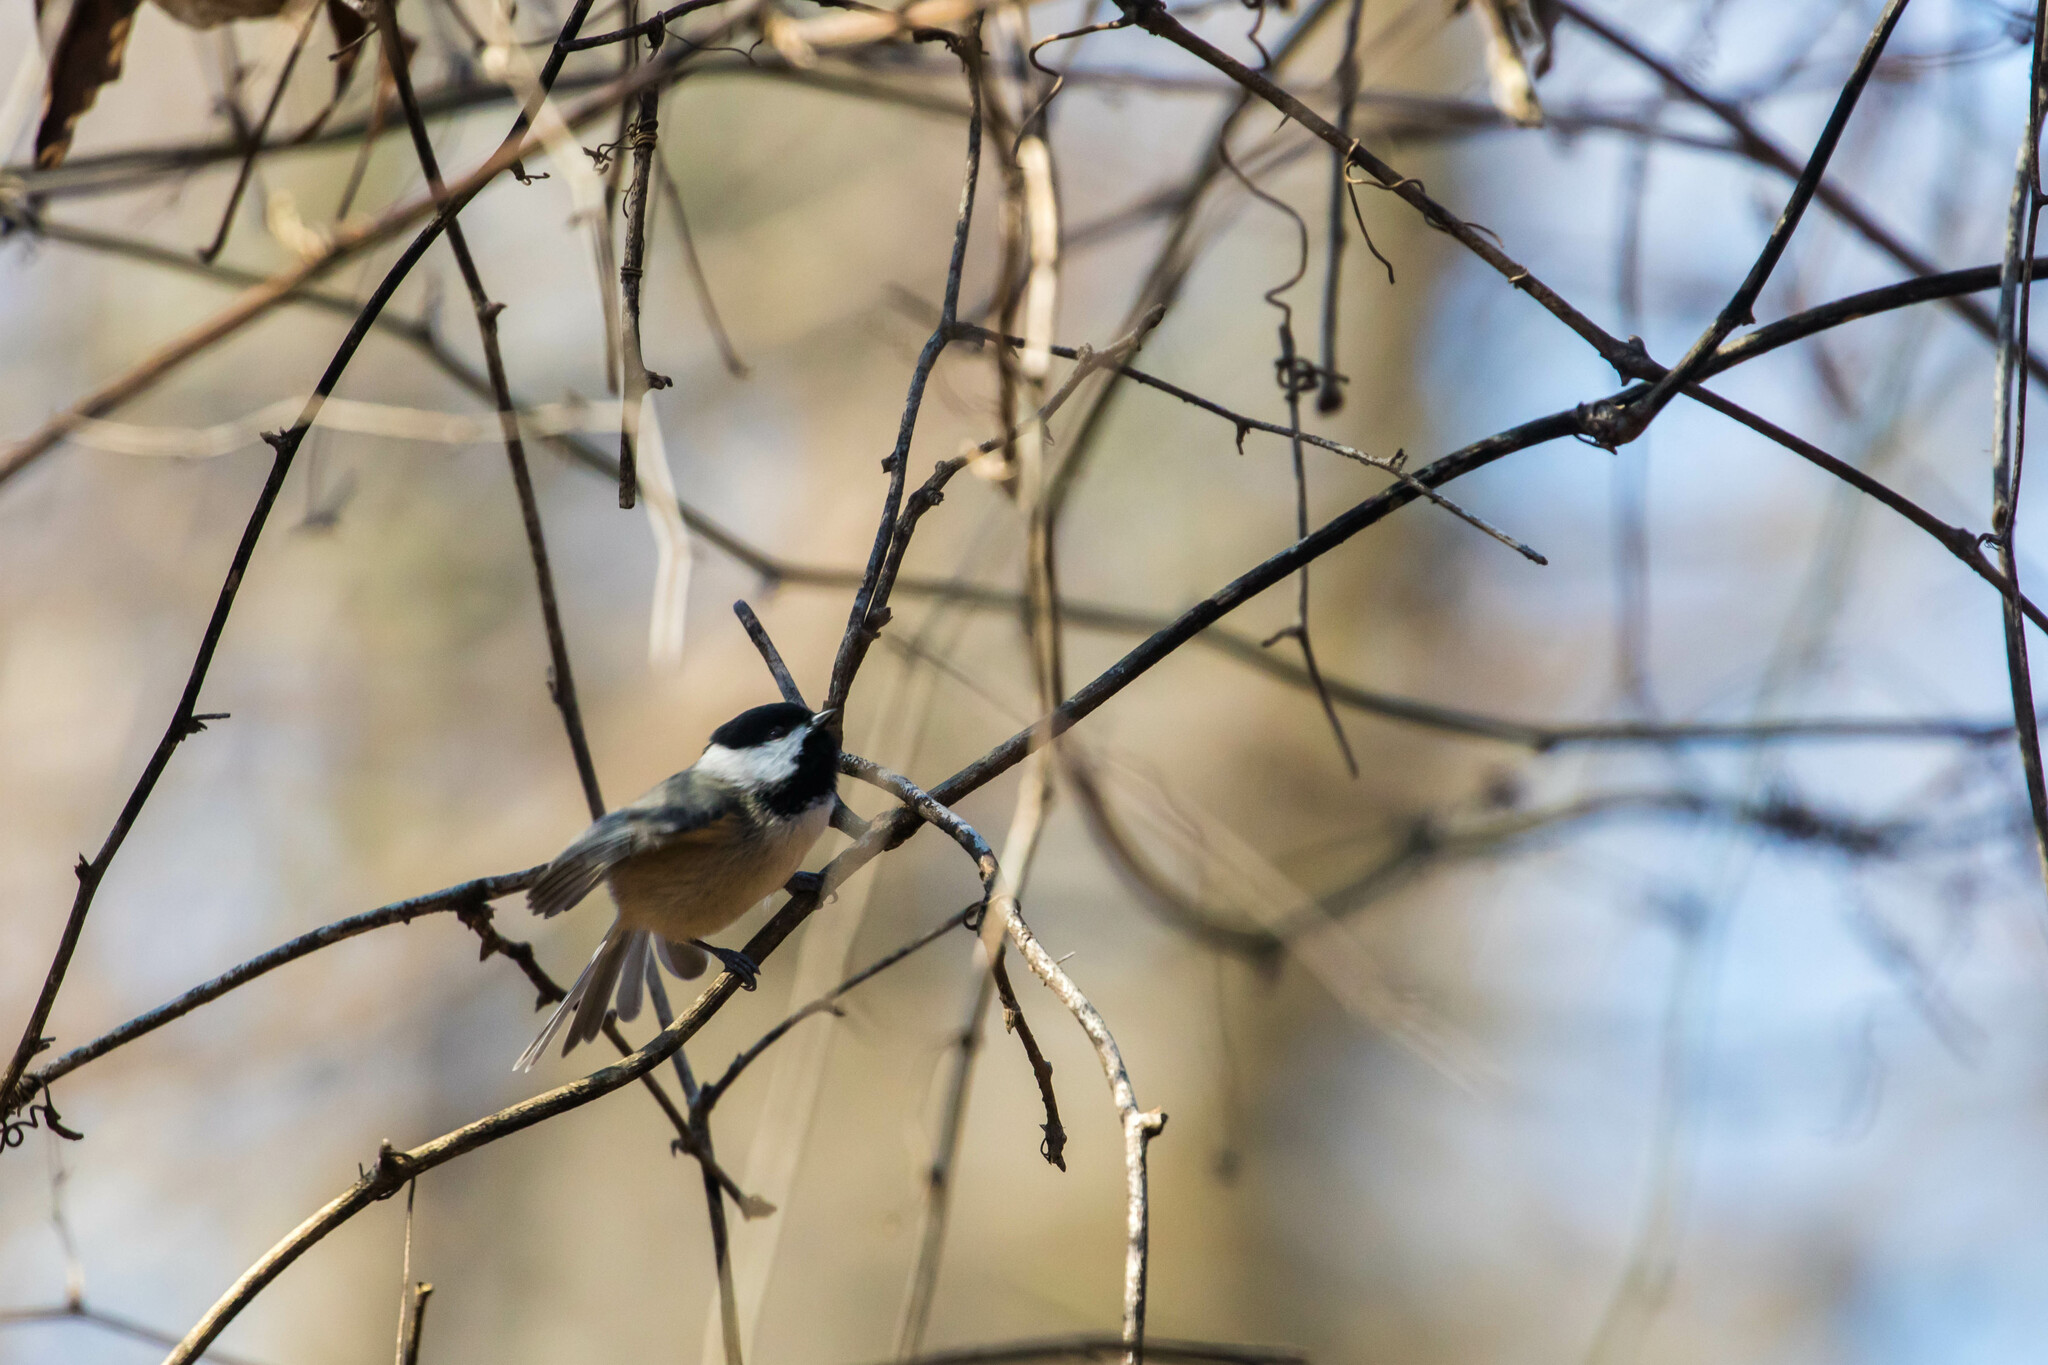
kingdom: Animalia
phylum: Chordata
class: Aves
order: Passeriformes
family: Paridae
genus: Poecile
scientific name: Poecile carolinensis
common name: Carolina chickadee
